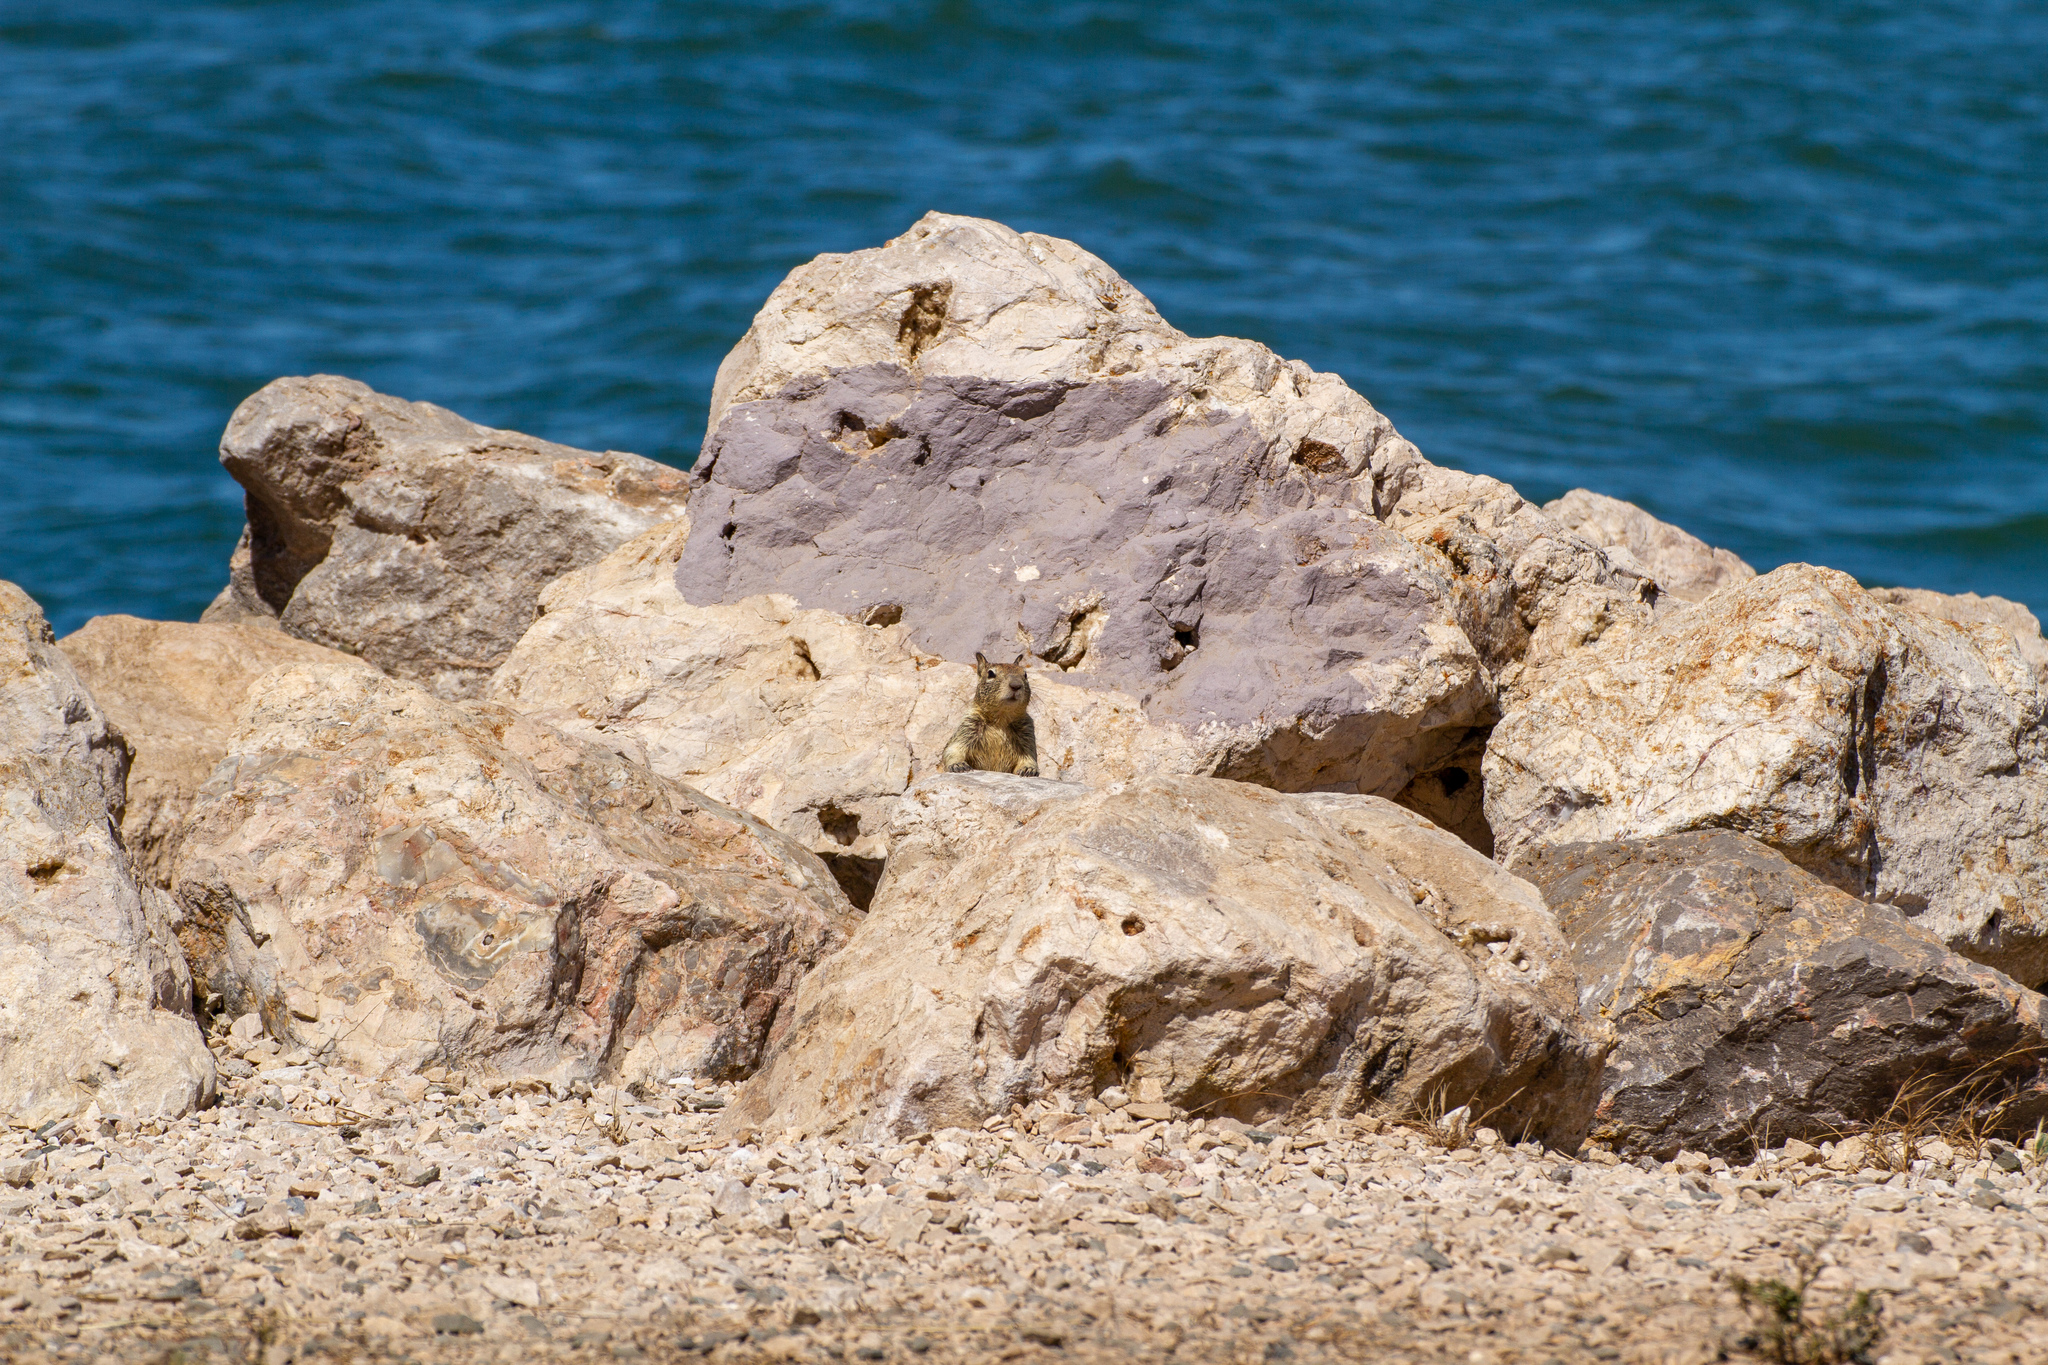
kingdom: Animalia
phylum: Chordata
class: Mammalia
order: Rodentia
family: Sciuridae
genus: Otospermophilus
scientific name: Otospermophilus beecheyi
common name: California ground squirrel
